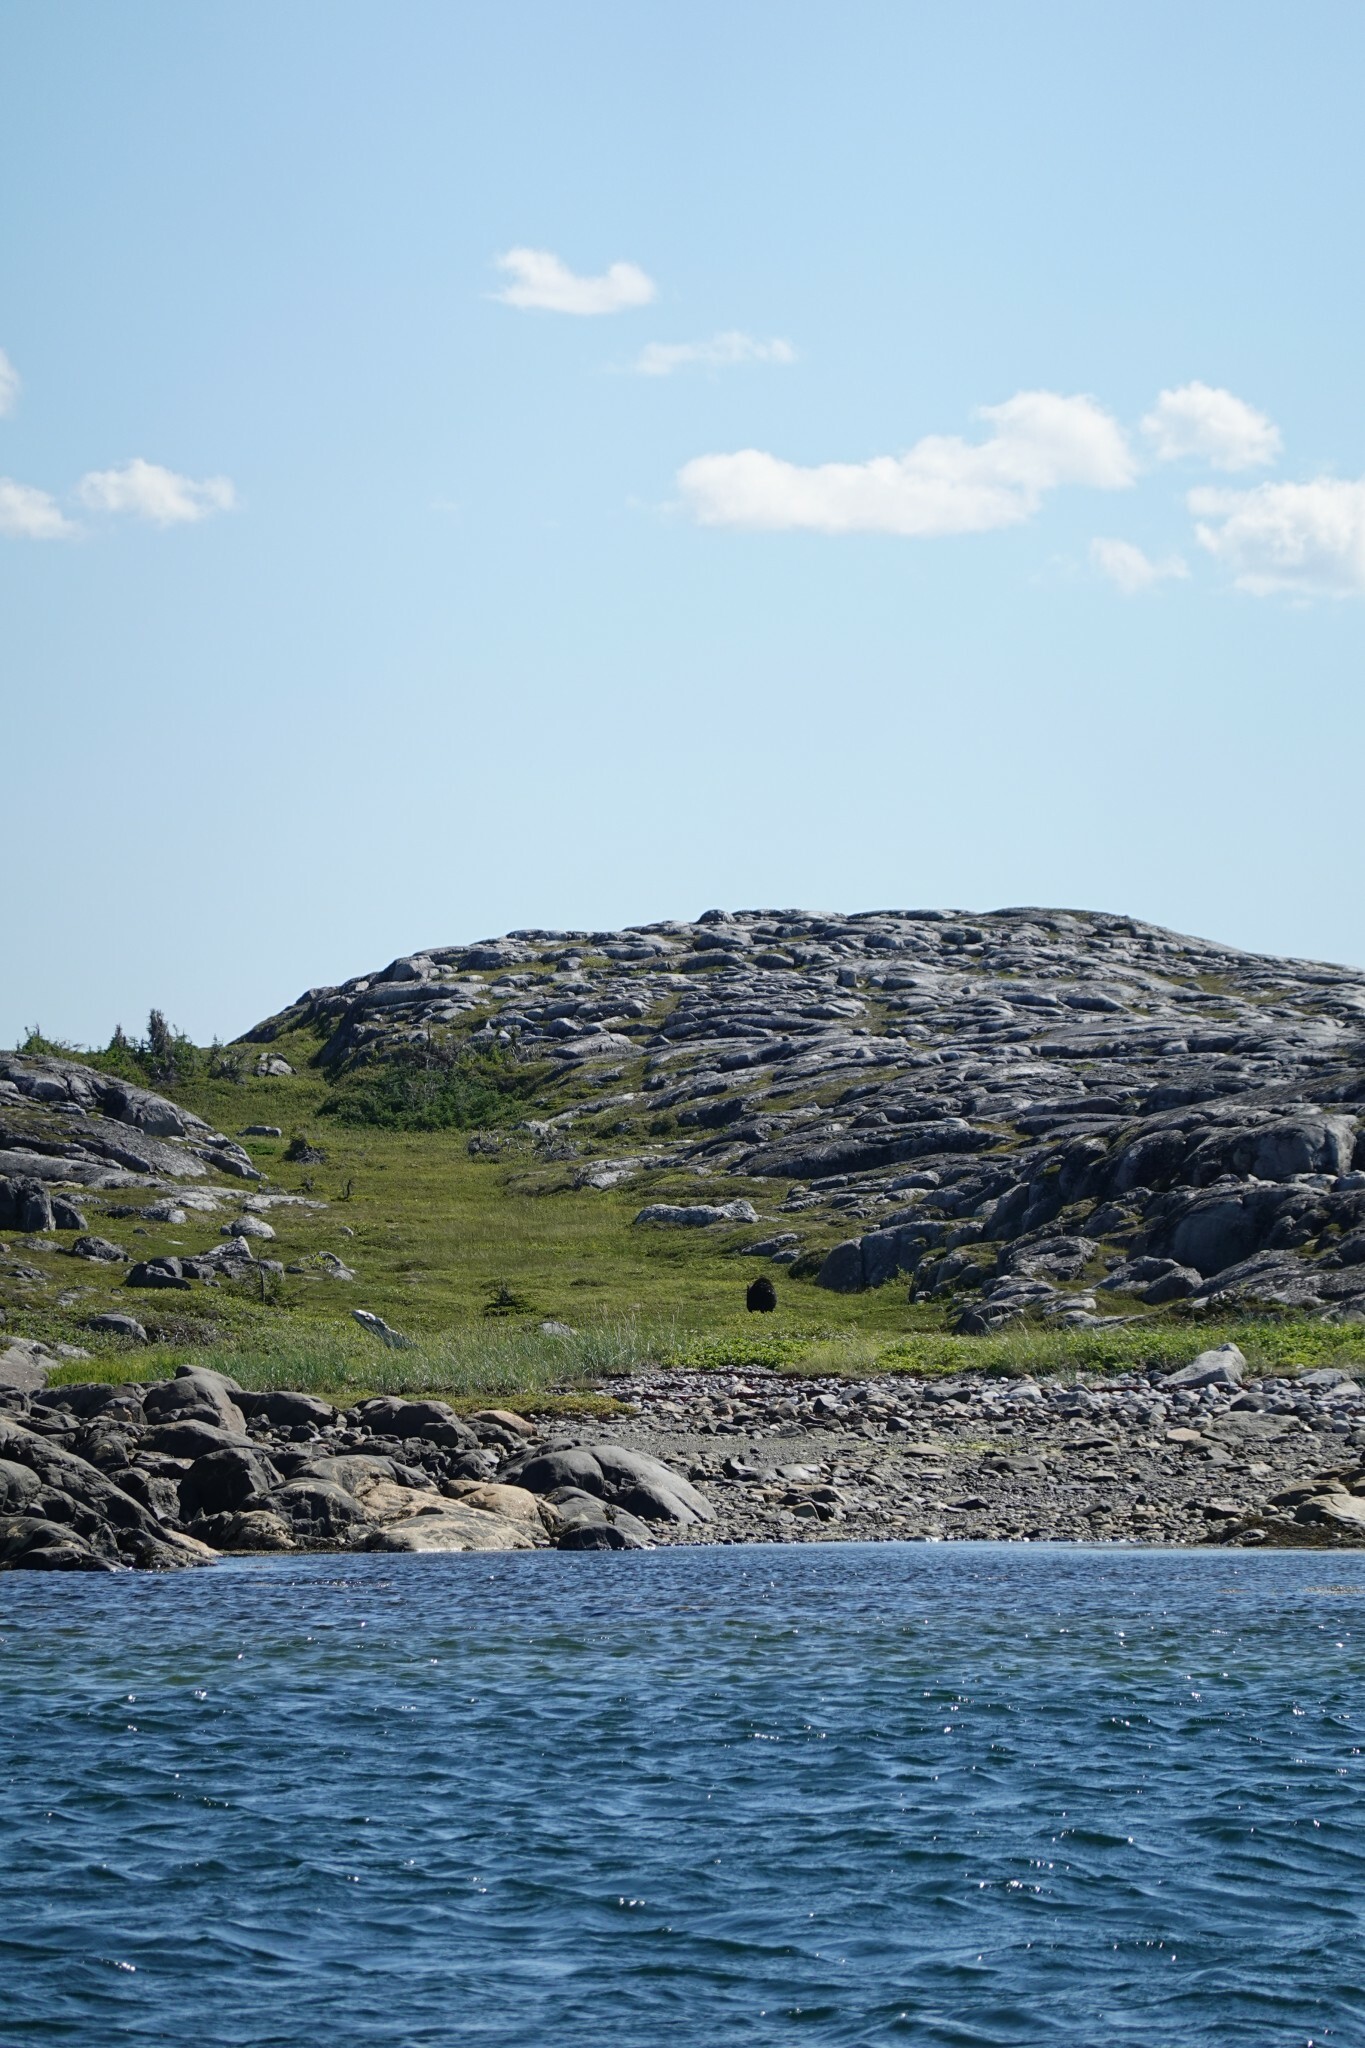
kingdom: Animalia
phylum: Chordata
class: Mammalia
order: Carnivora
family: Ursidae
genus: Ursus
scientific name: Ursus americanus
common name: American black bear
